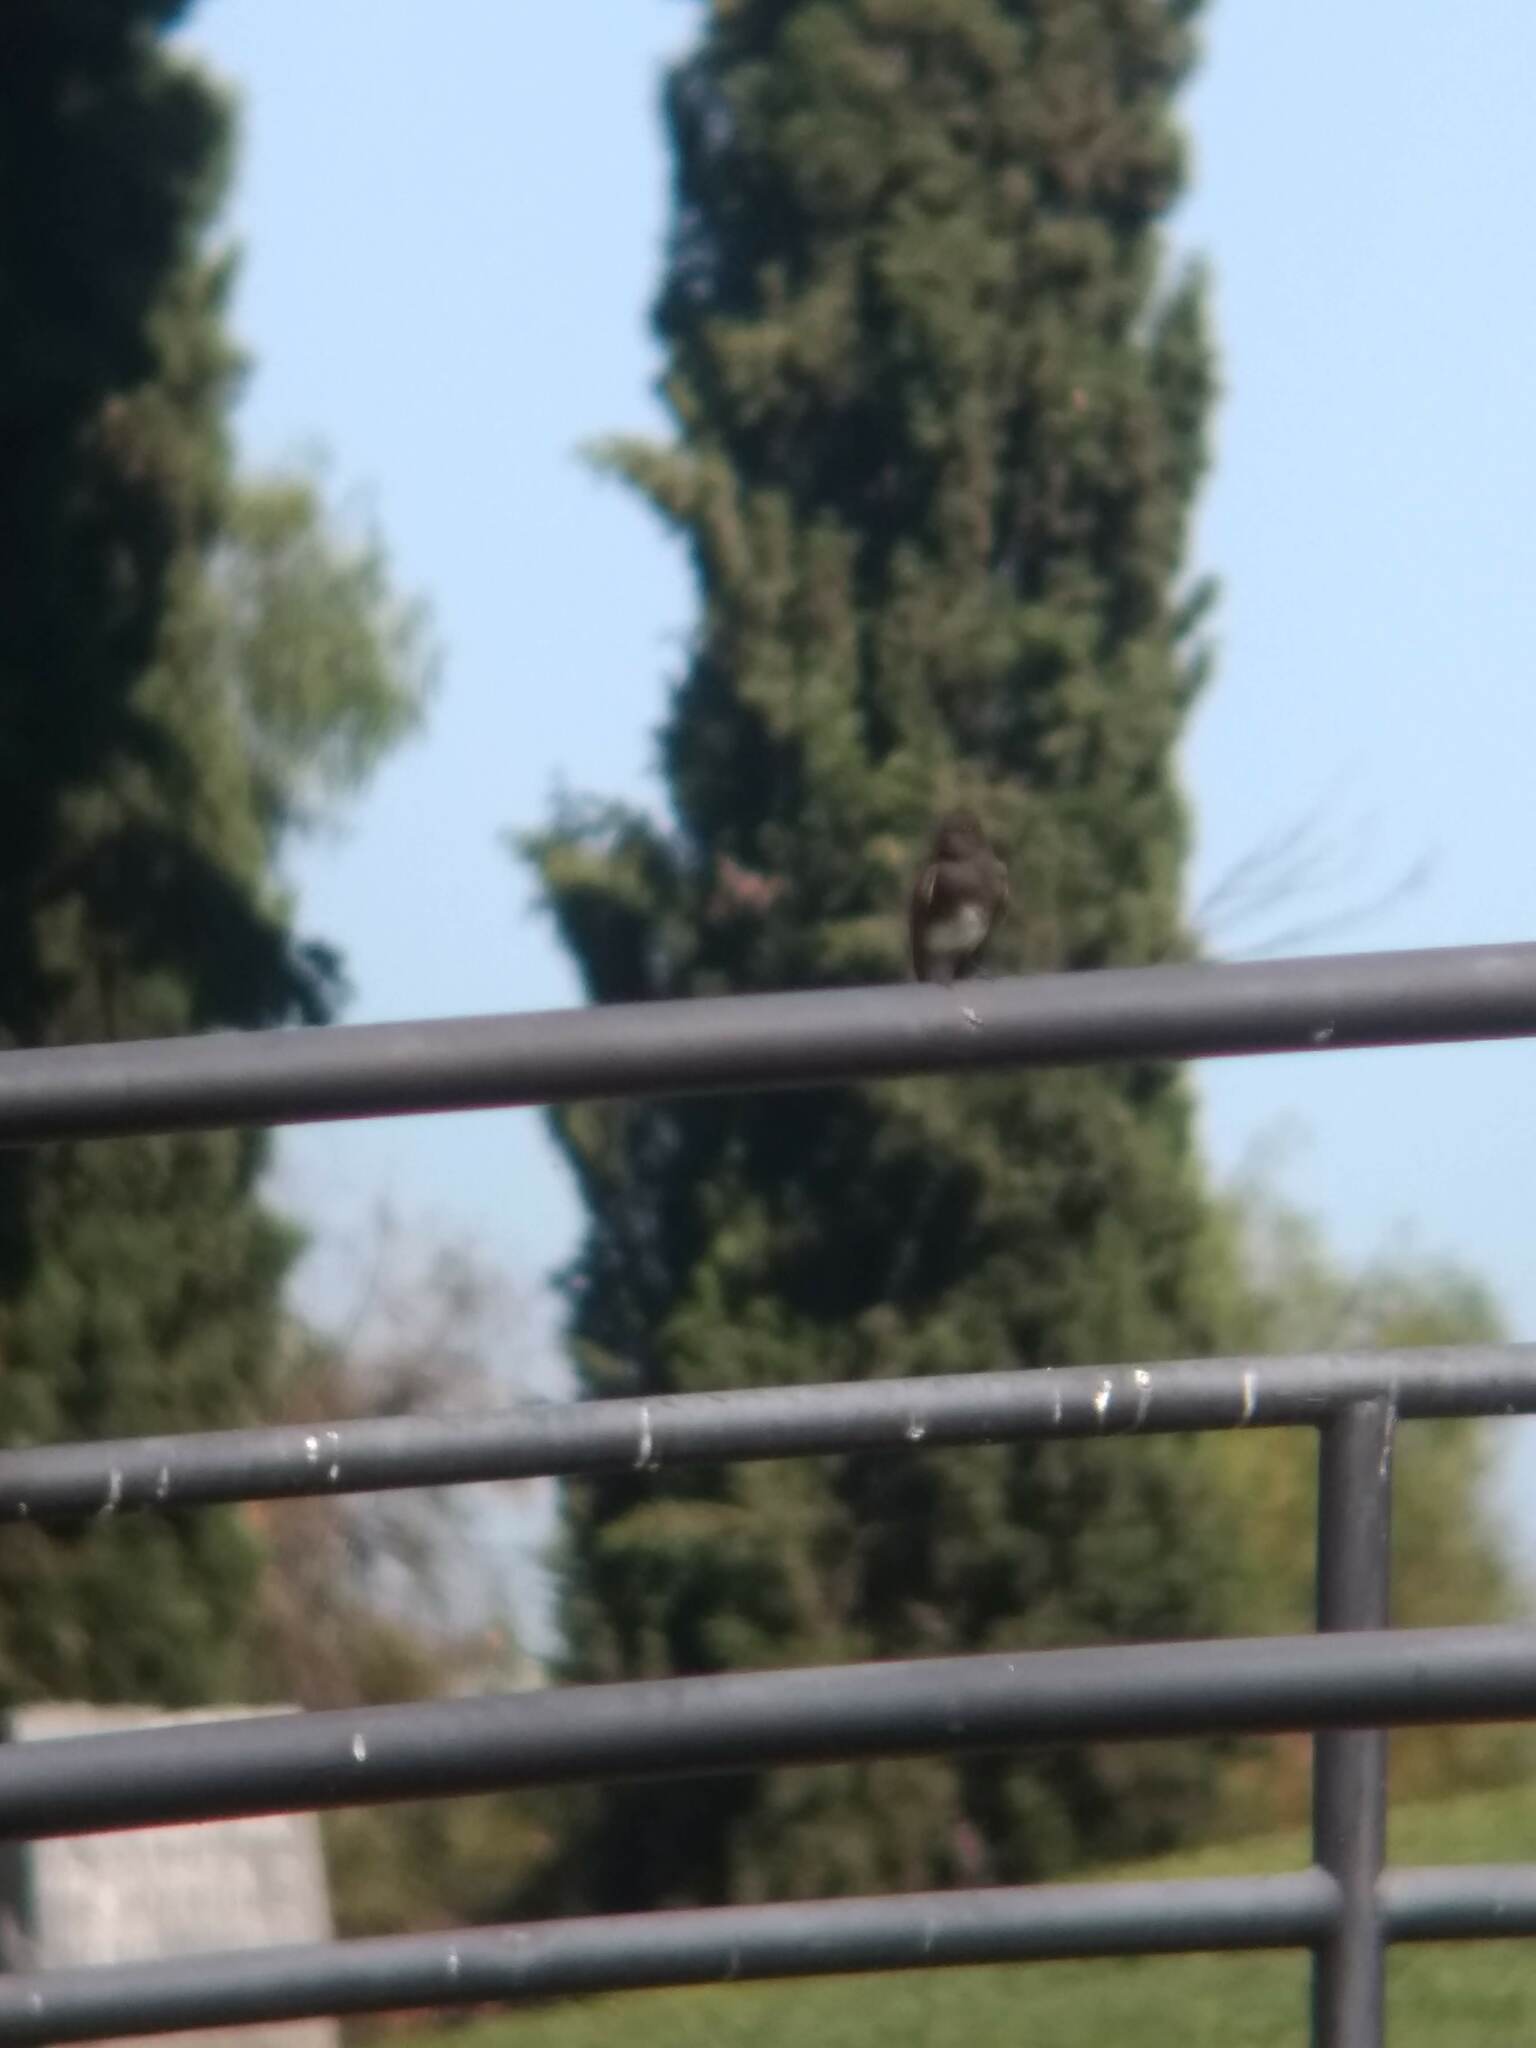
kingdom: Animalia
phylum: Chordata
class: Aves
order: Passeriformes
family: Tyrannidae
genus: Sayornis
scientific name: Sayornis nigricans
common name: Black phoebe
